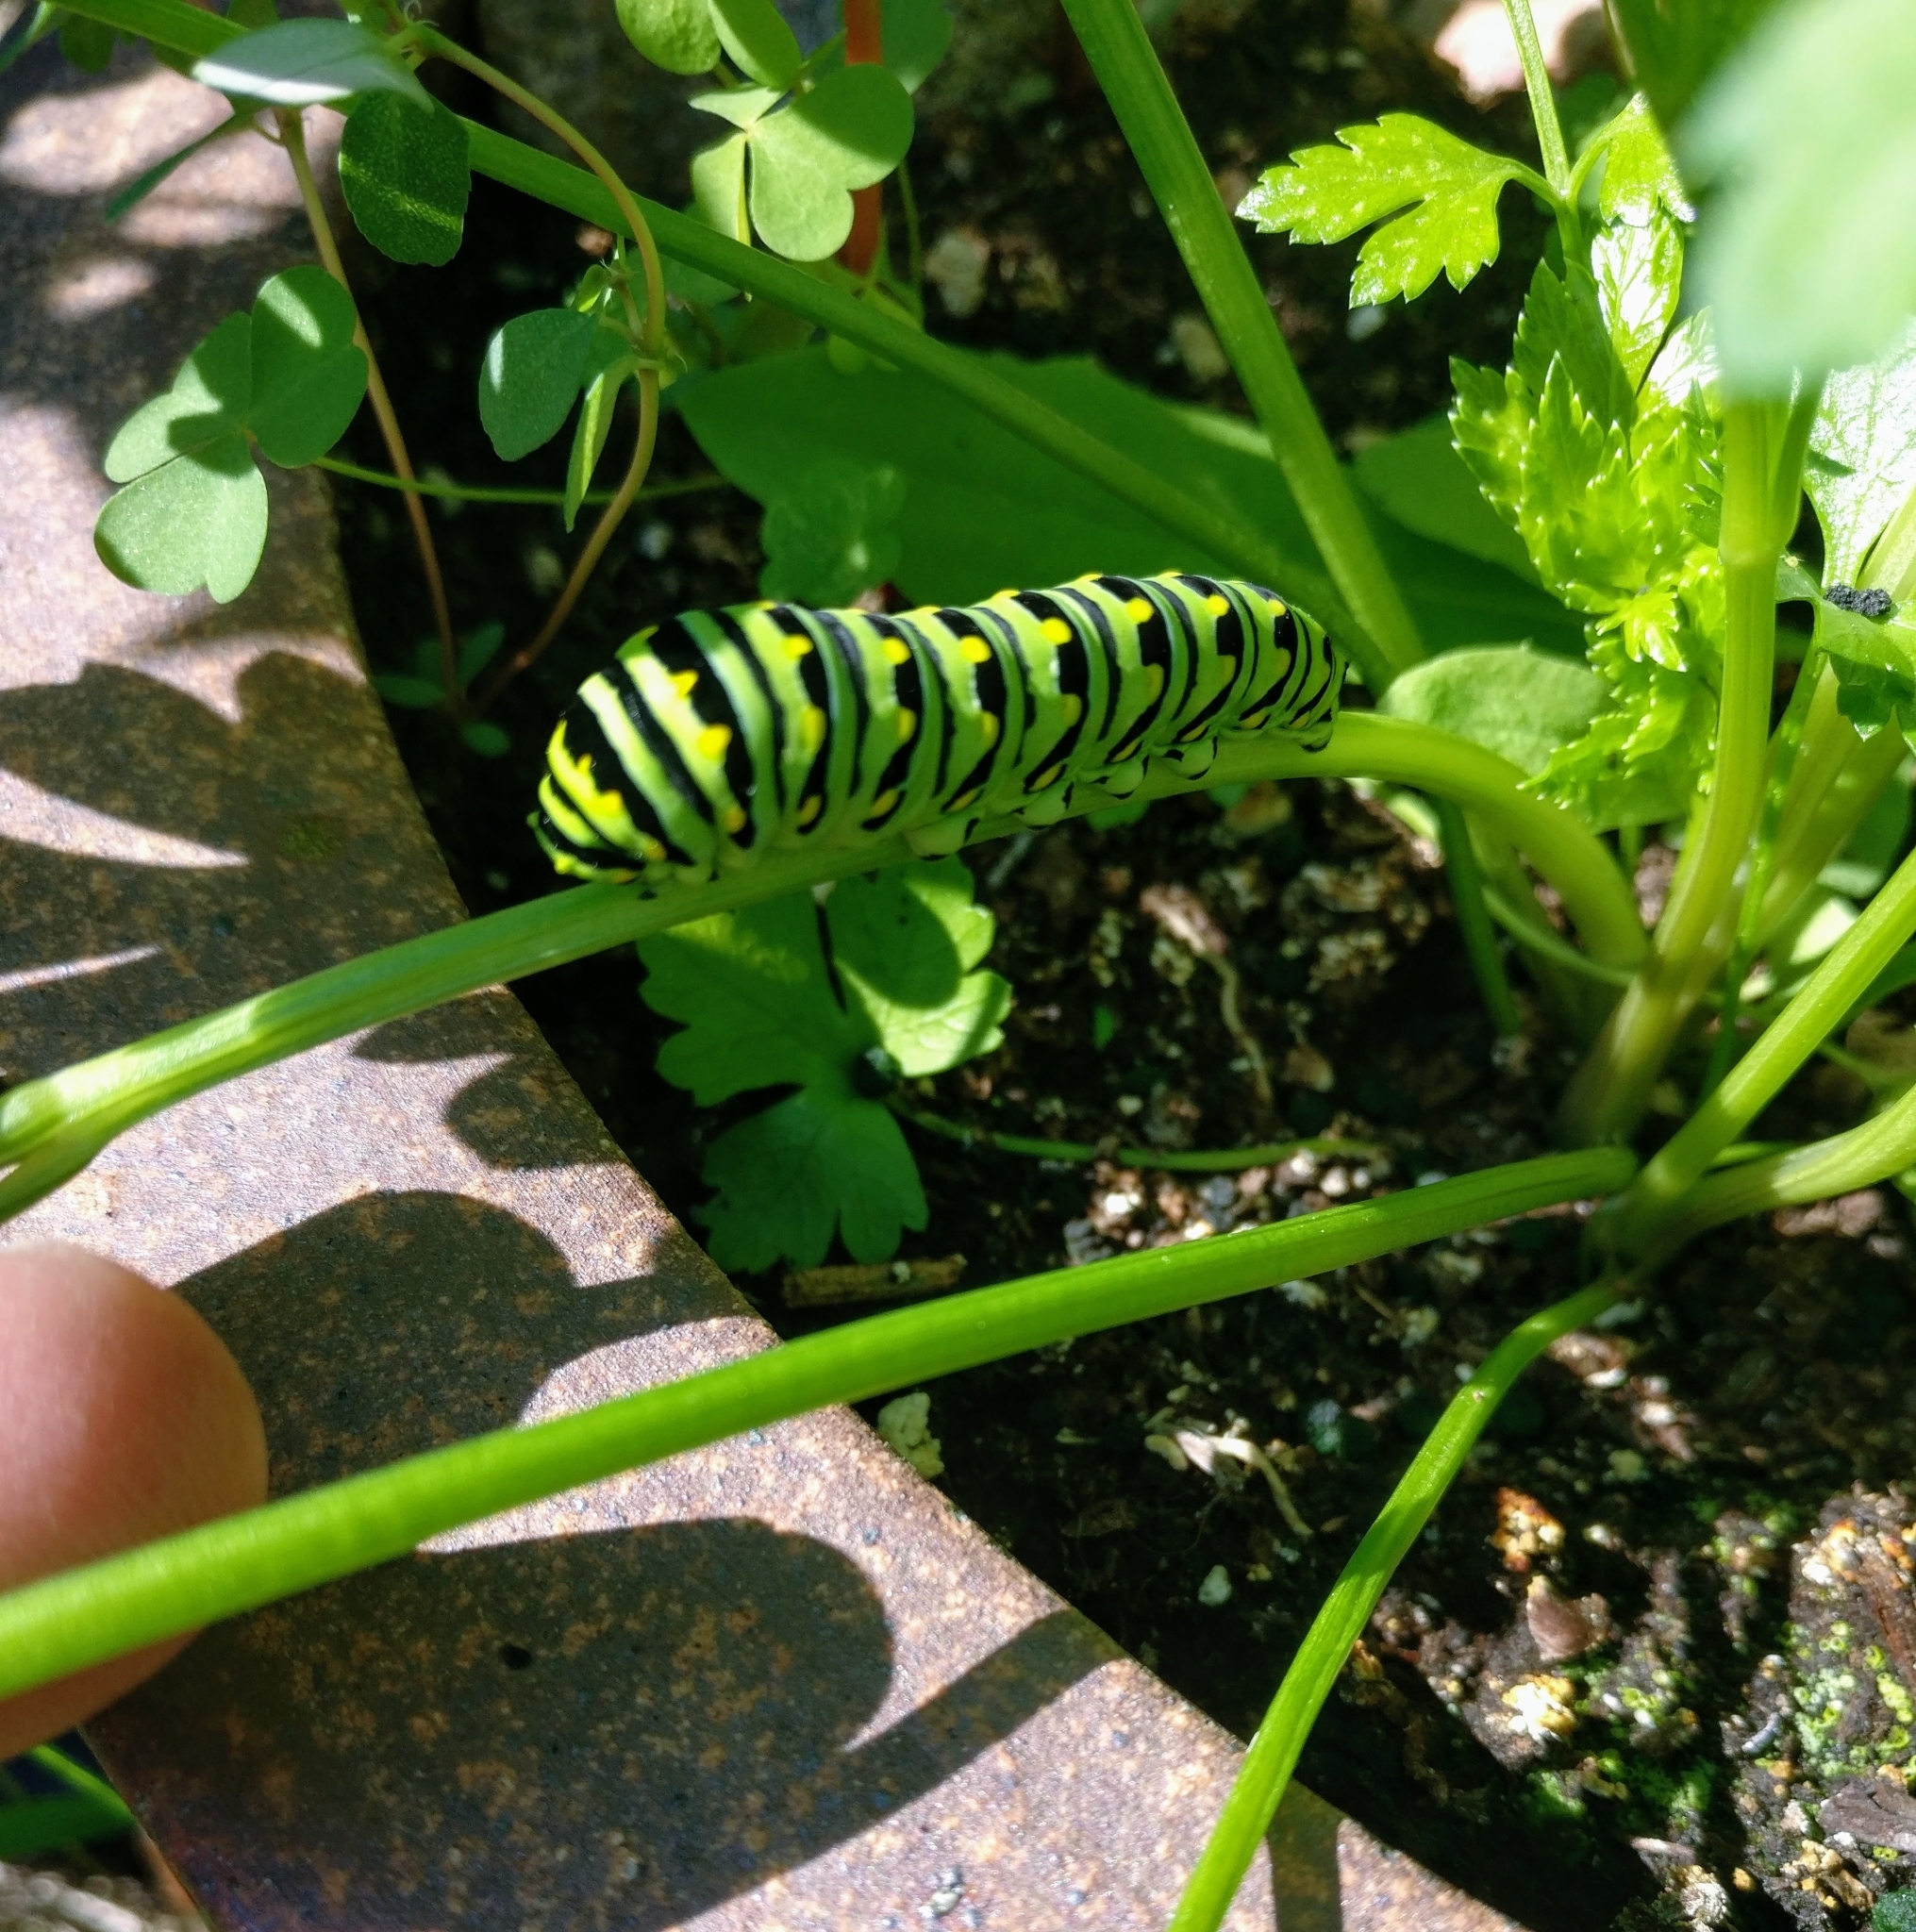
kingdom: Animalia
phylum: Arthropoda
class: Insecta
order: Lepidoptera
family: Papilionidae
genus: Papilio
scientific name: Papilio polyxenes
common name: Black swallowtail
